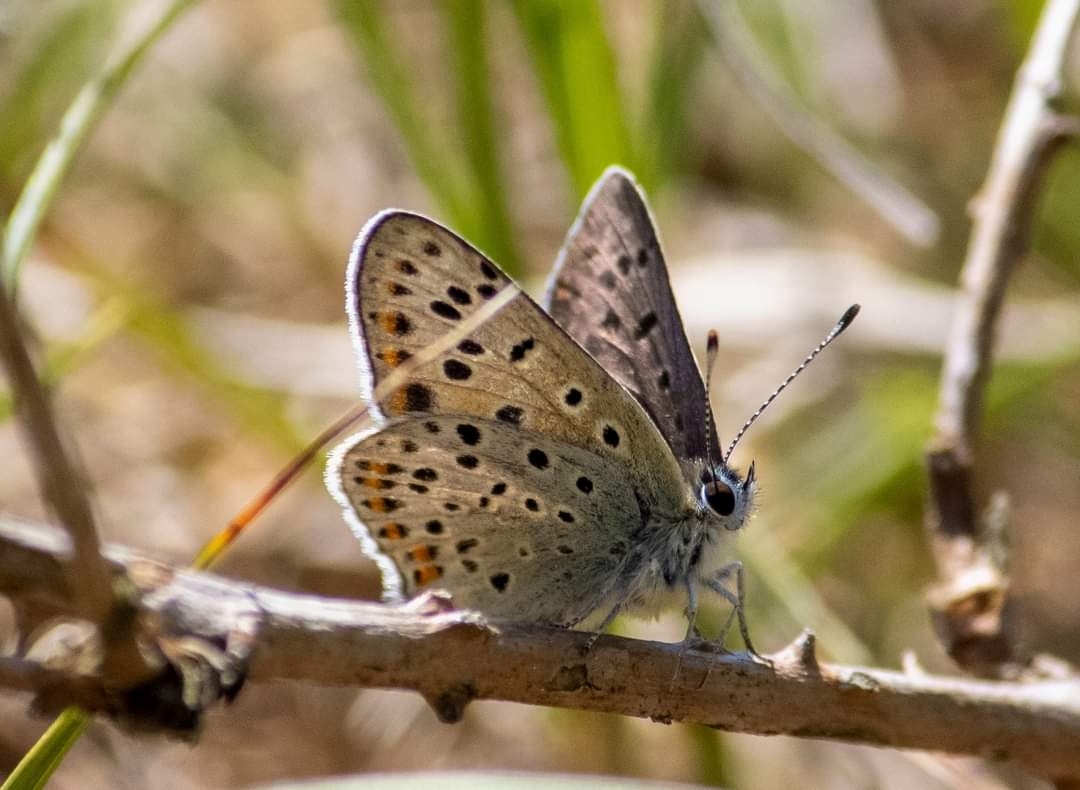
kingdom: Animalia
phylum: Arthropoda
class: Insecta
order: Lepidoptera
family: Lycaenidae
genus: Loweia
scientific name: Loweia tityrus
